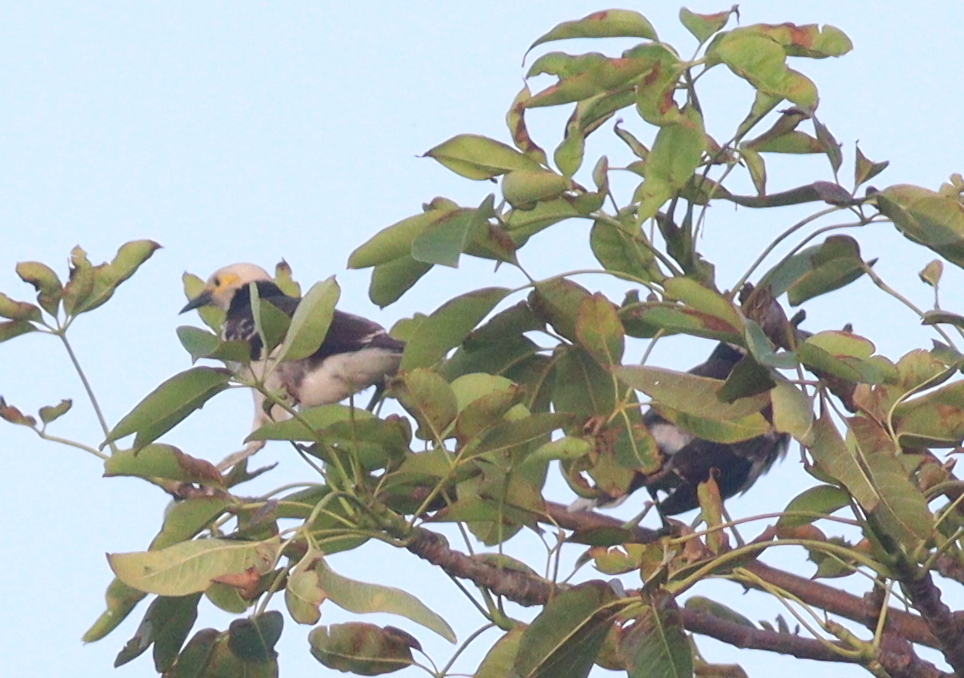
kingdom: Animalia
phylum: Chordata
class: Aves
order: Passeriformes
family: Sturnidae
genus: Gracupica
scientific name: Gracupica nigricollis
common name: Black-collared starling
